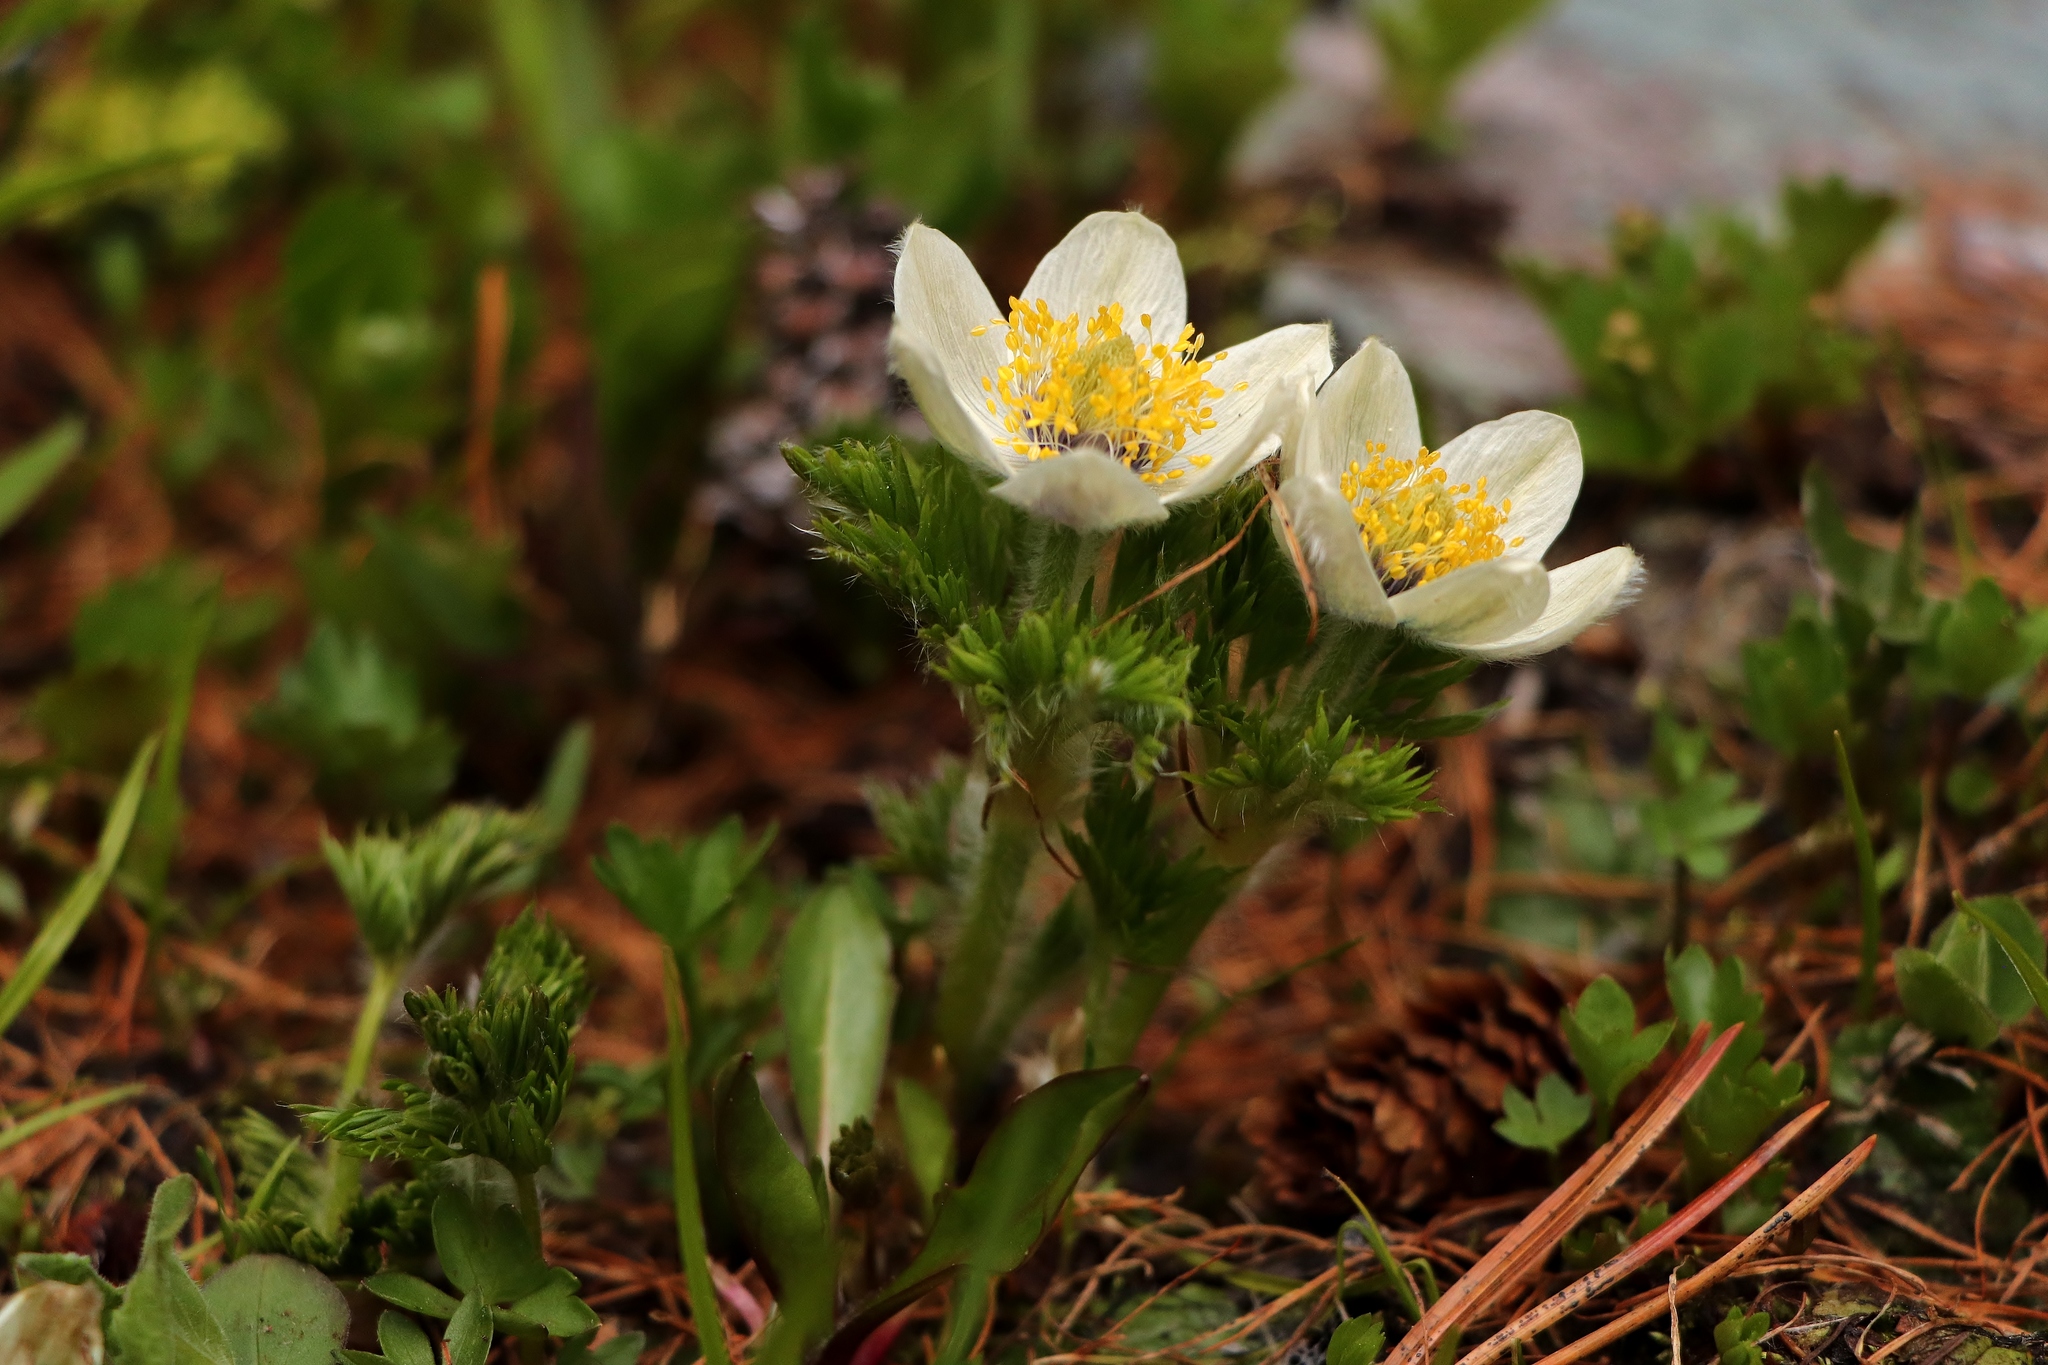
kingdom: Plantae
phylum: Tracheophyta
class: Magnoliopsida
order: Ranunculales
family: Ranunculaceae
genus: Pulsatilla
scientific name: Pulsatilla occidentalis
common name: Mountain pasqueflower
